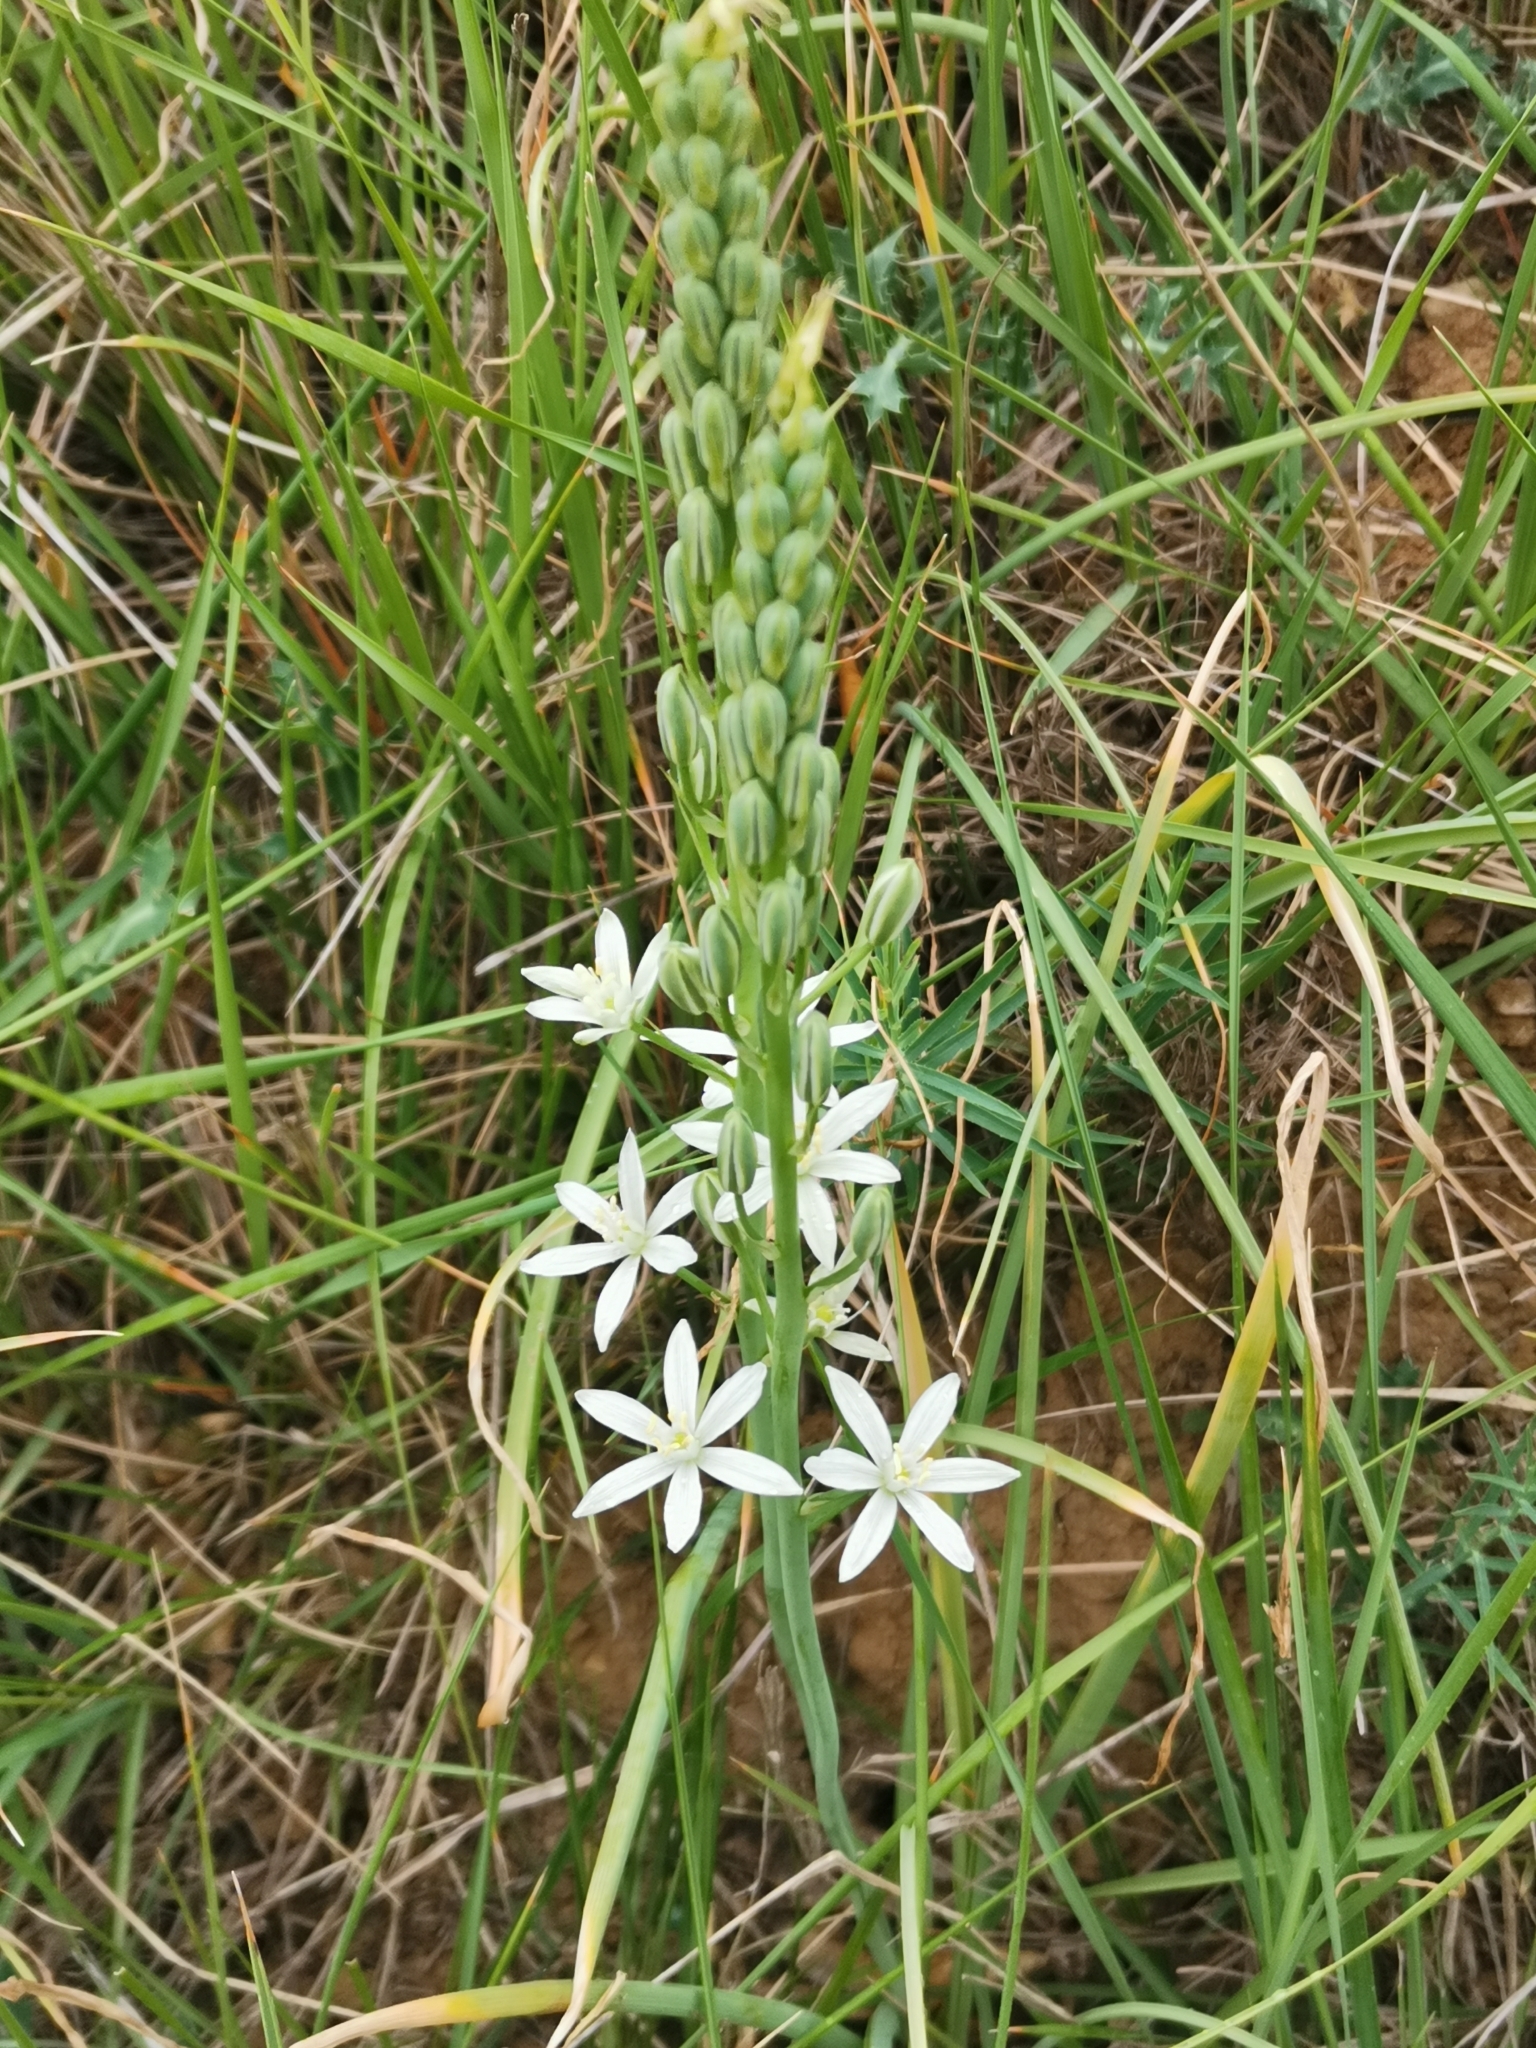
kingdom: Plantae
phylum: Tracheophyta
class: Liliopsida
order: Asparagales
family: Asparagaceae
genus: Ornithogalum
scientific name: Ornithogalum narbonense
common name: Bath-asparagus
